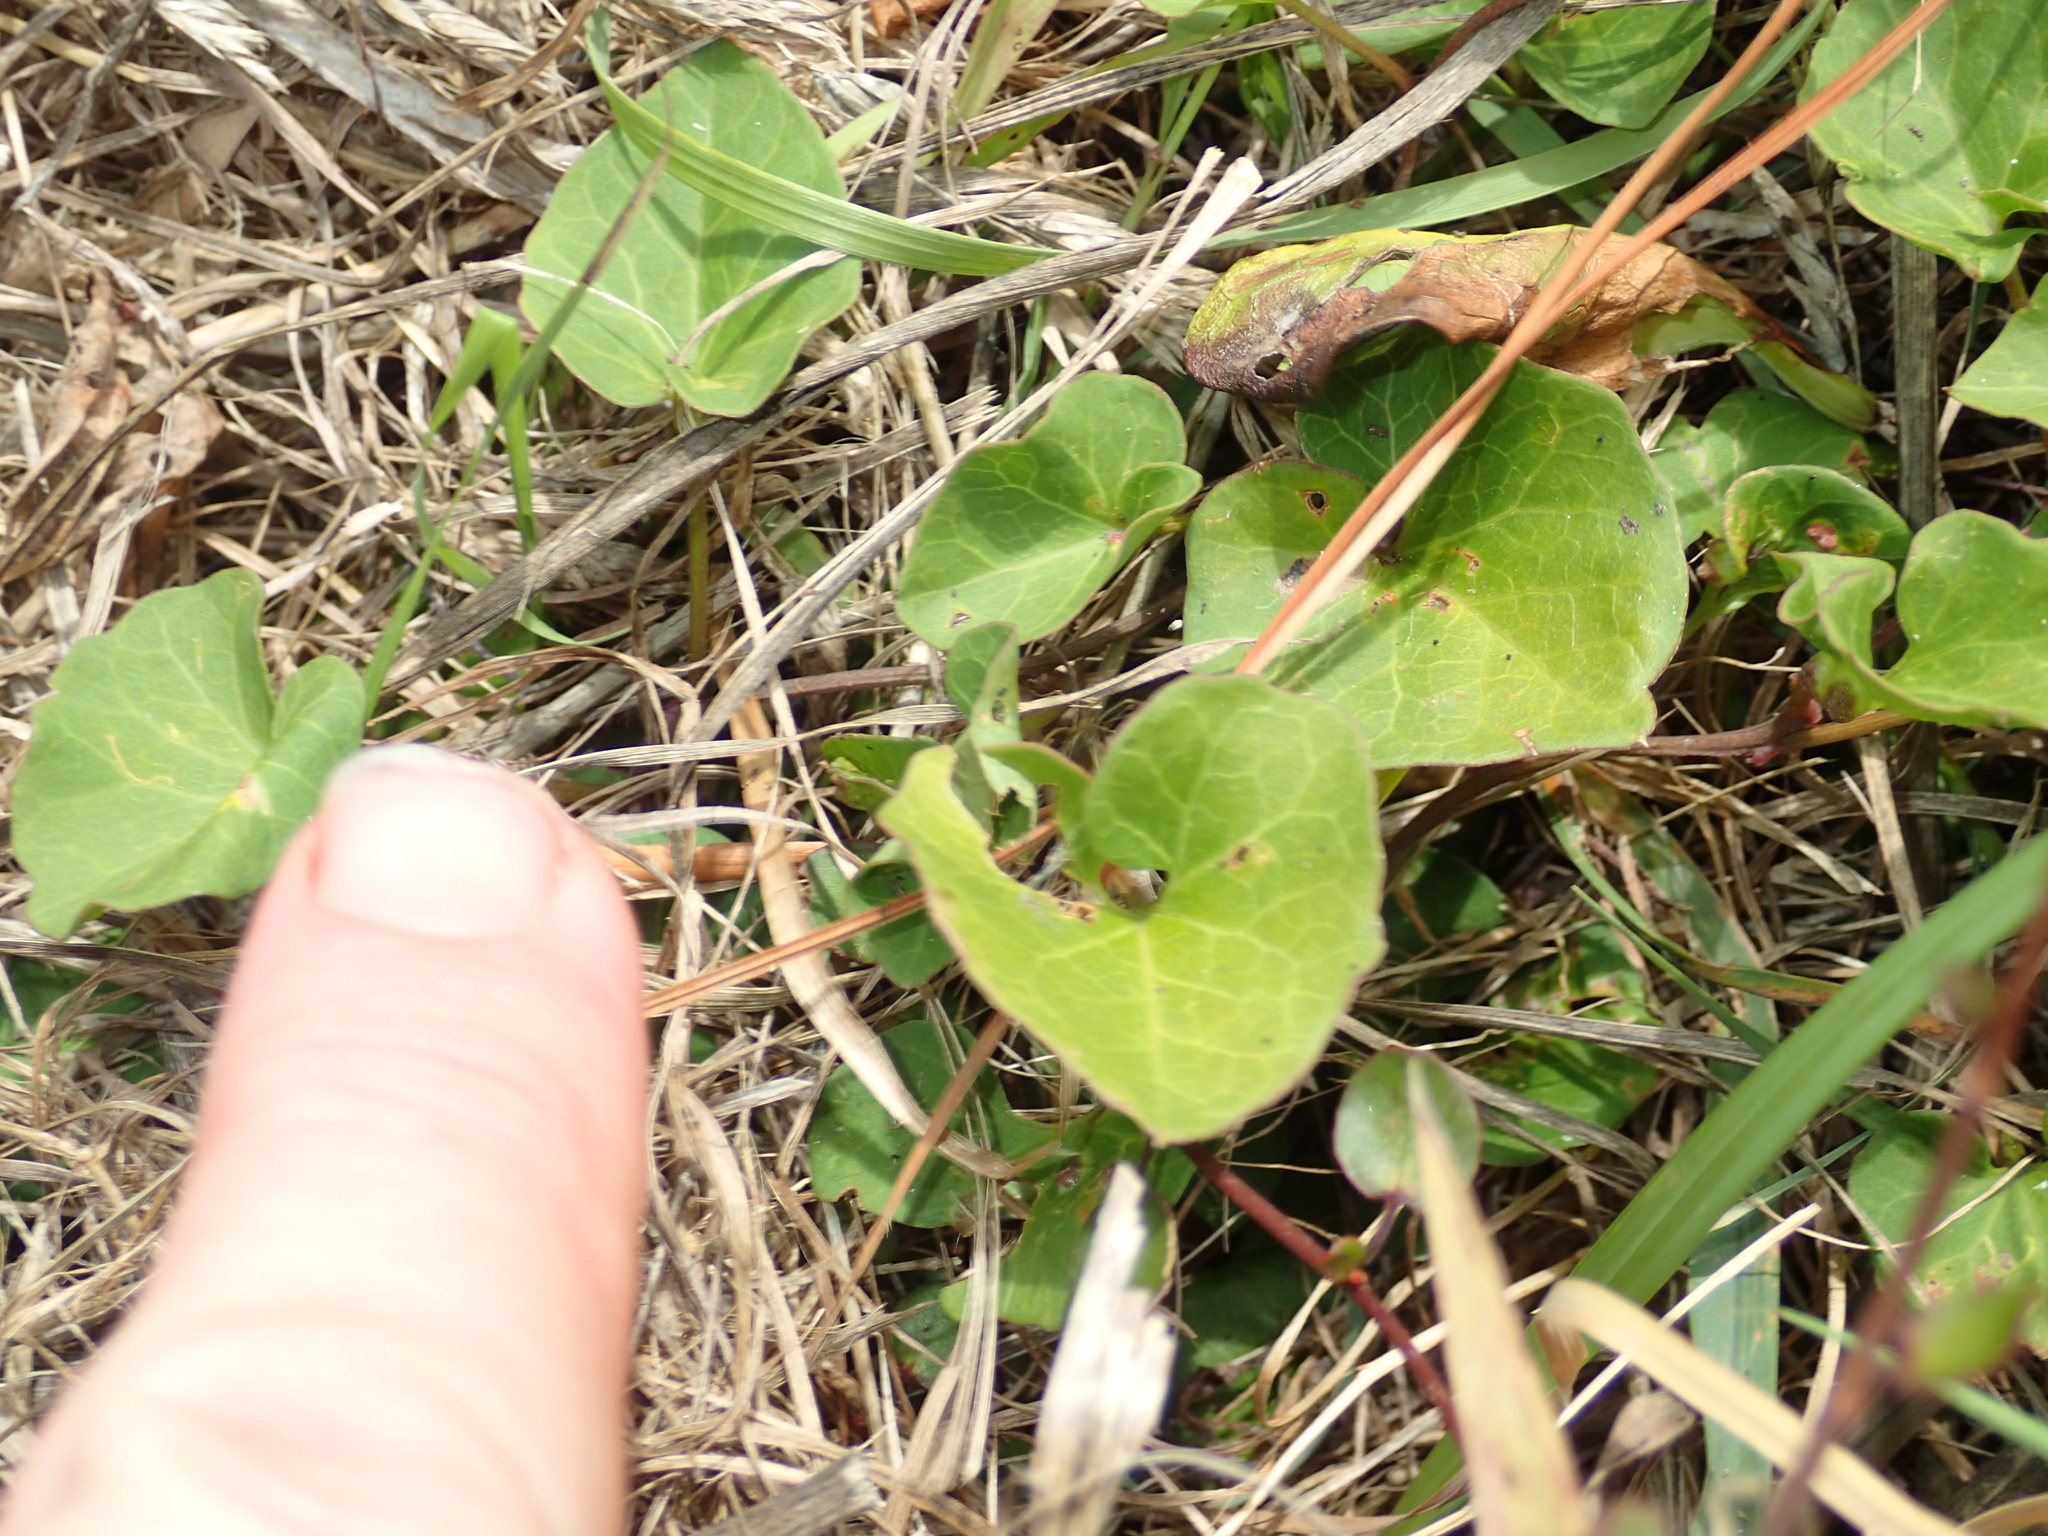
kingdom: Plantae
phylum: Tracheophyta
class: Magnoliopsida
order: Solanales
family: Convolvulaceae
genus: Calystegia
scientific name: Calystegia
